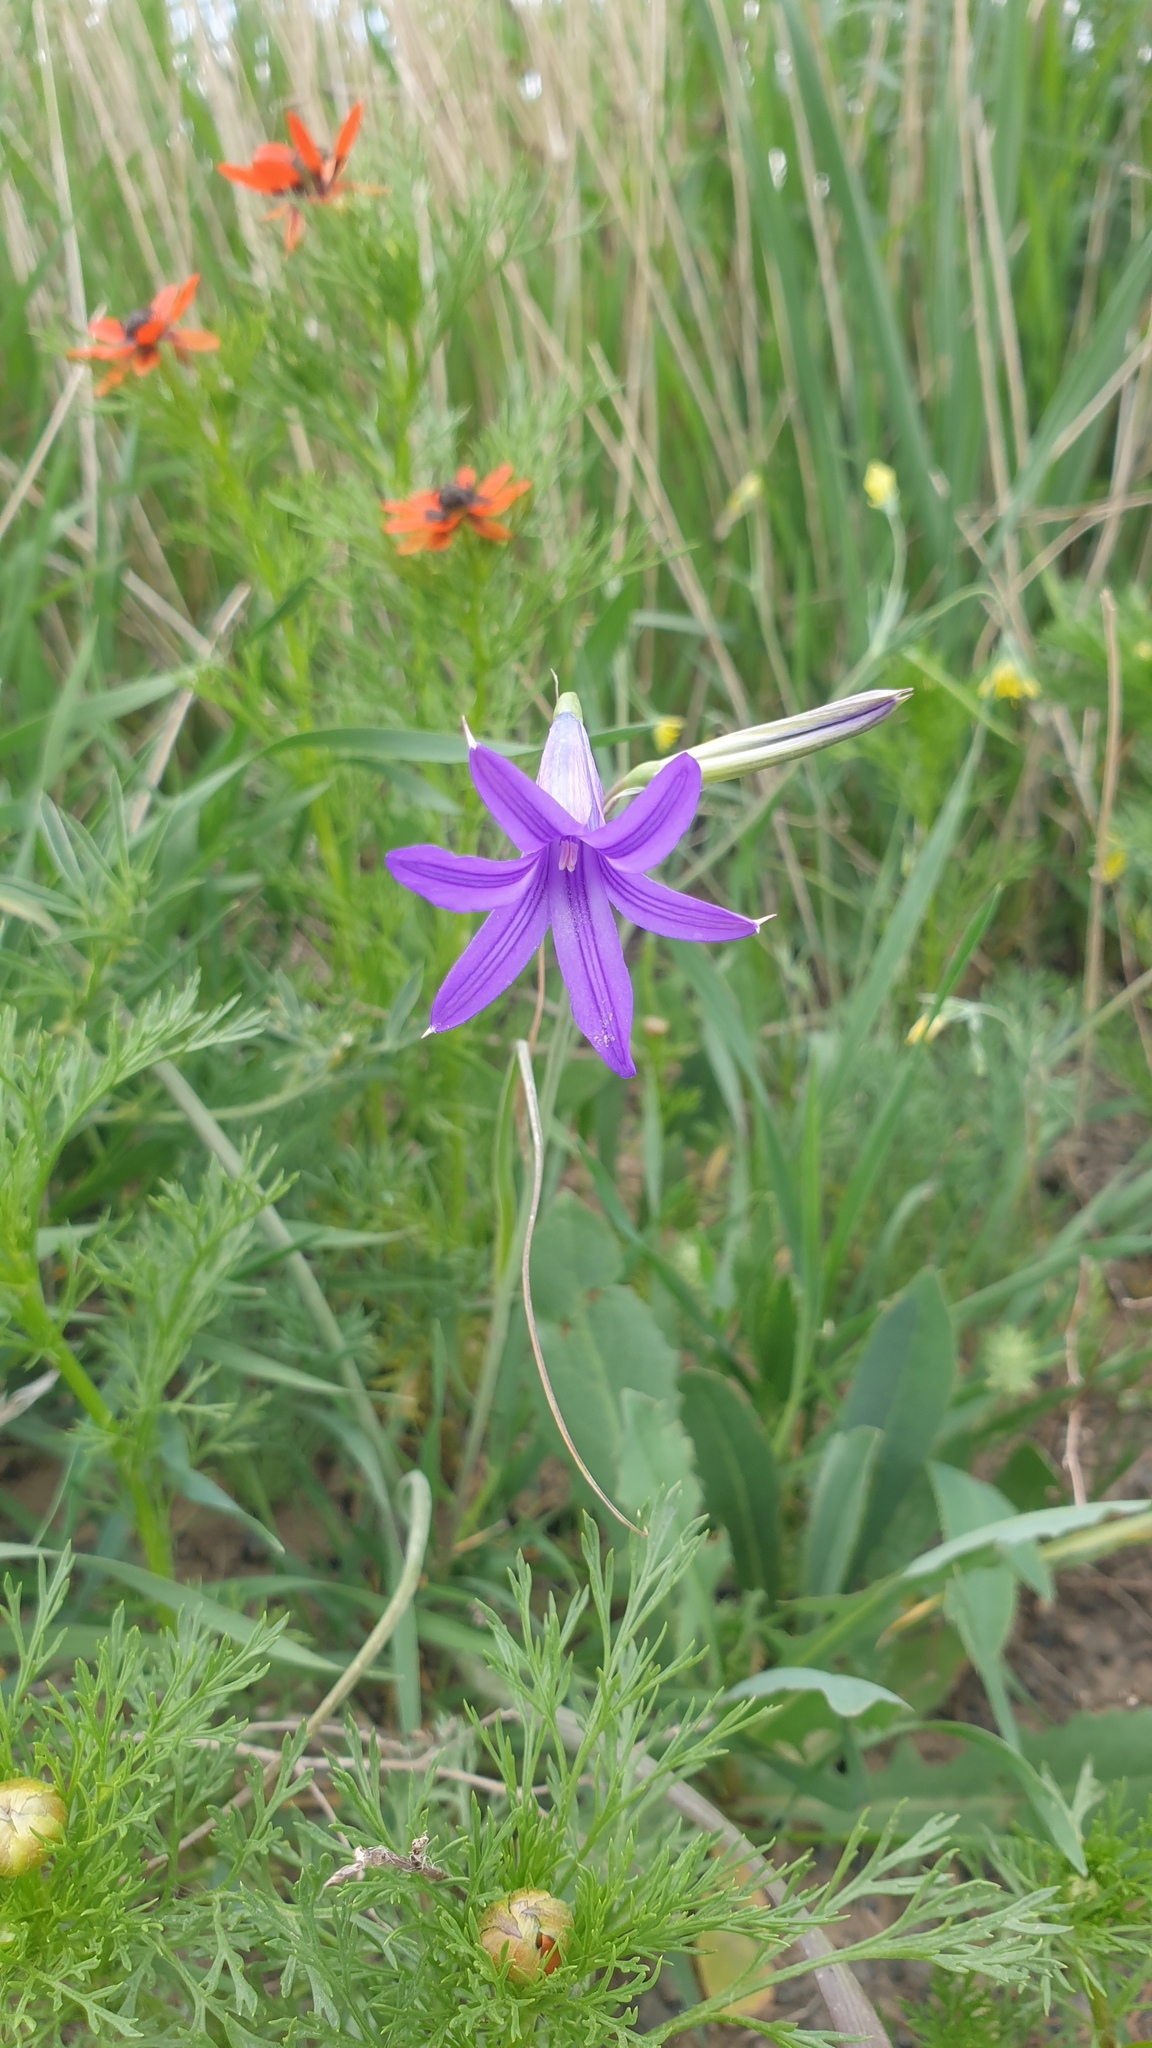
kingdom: Plantae
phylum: Tracheophyta
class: Liliopsida
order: Asparagales
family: Ixioliriaceae
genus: Ixiolirion
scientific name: Ixiolirion tataricum
